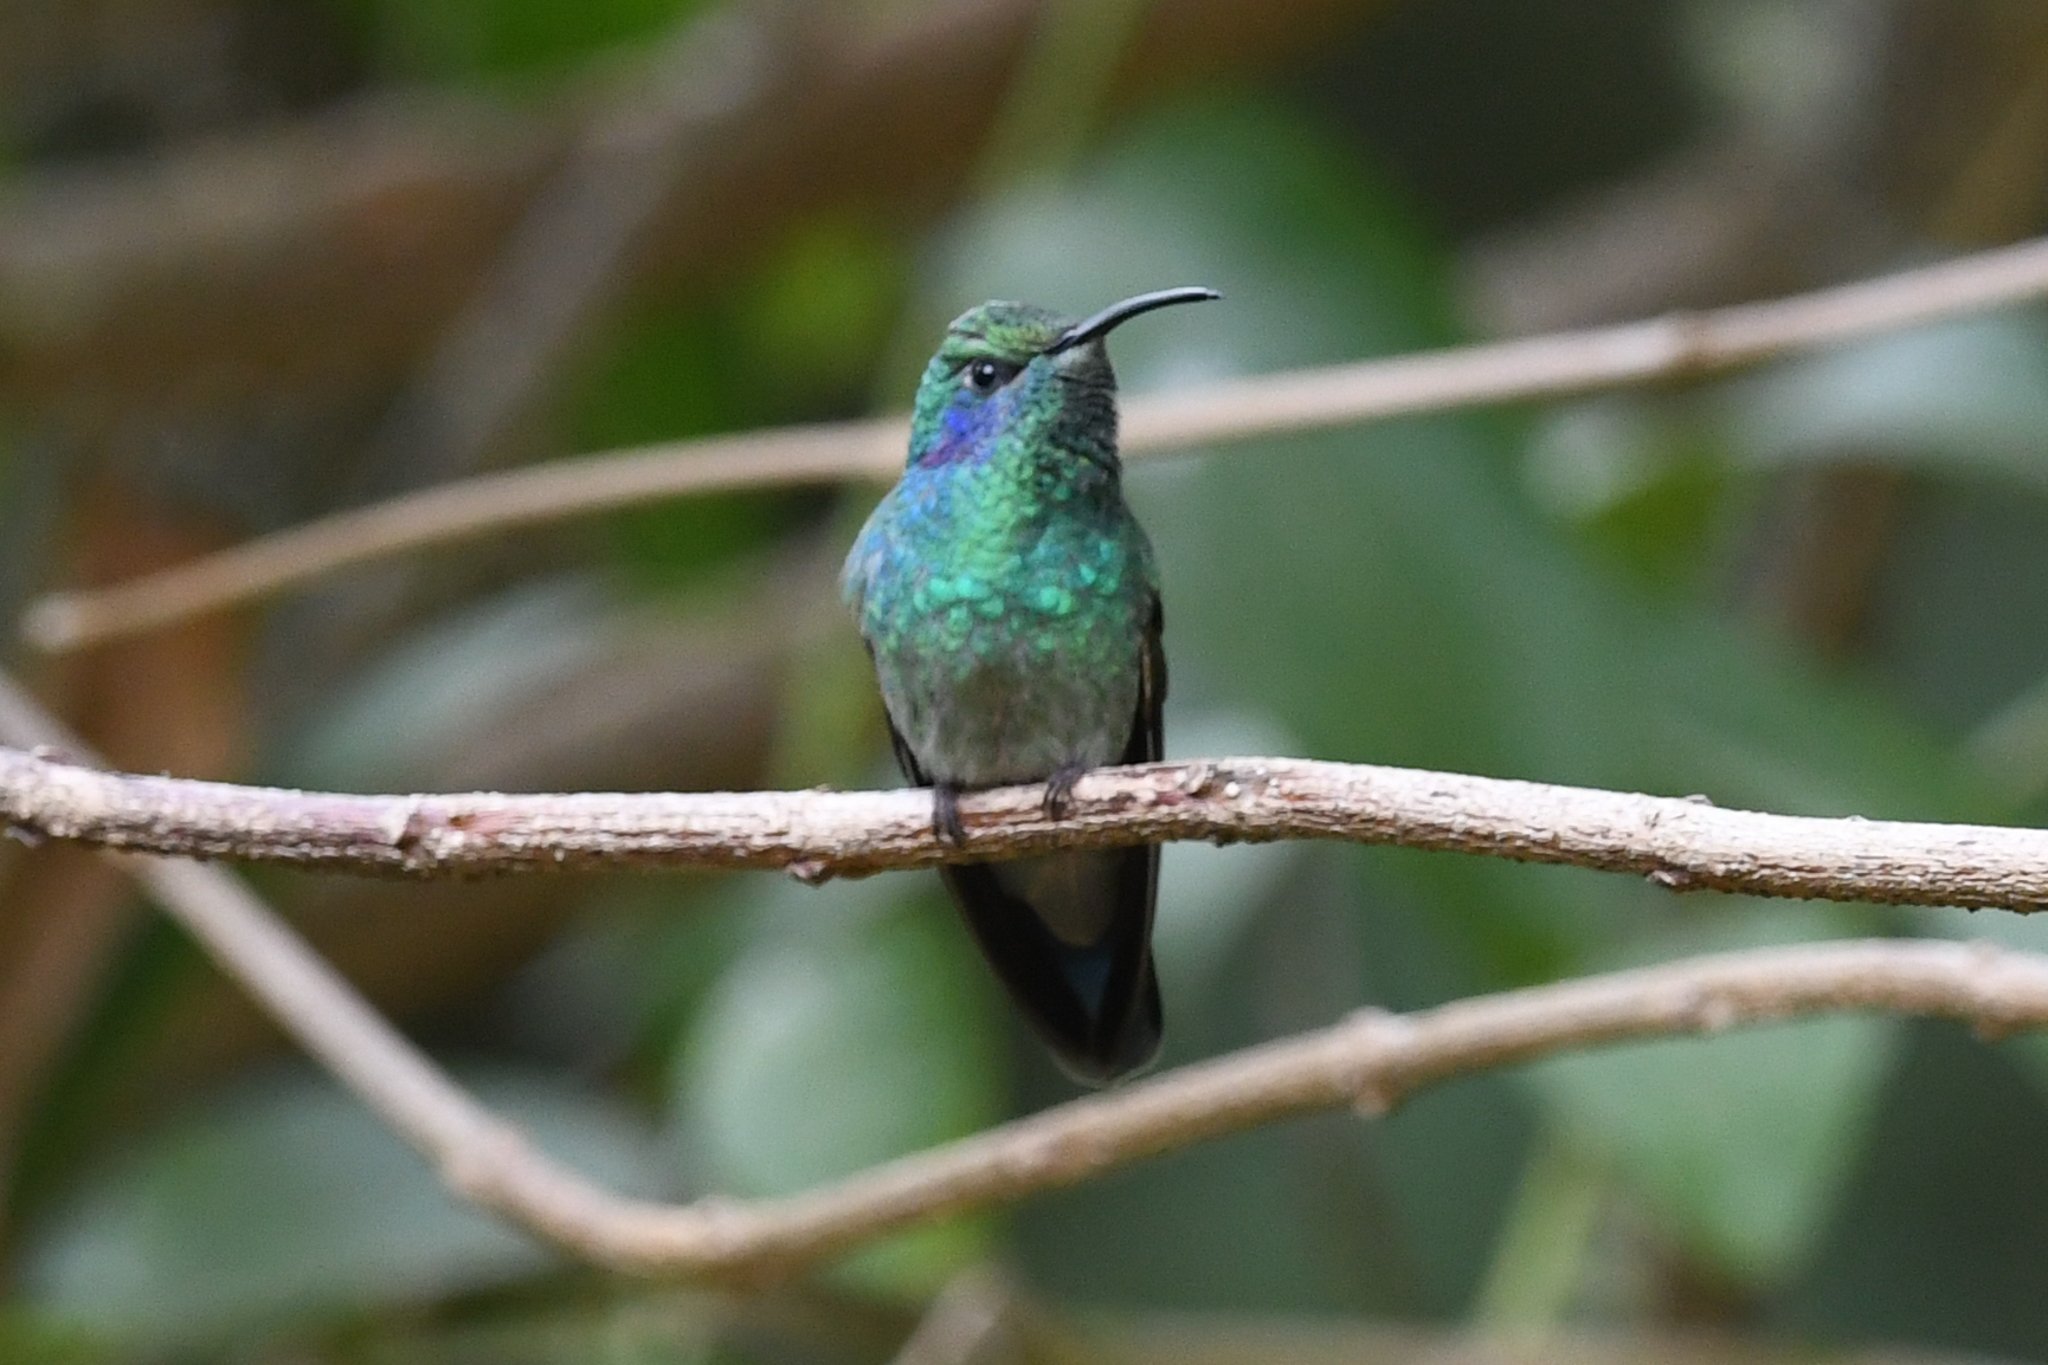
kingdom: Animalia
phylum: Chordata
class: Aves
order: Apodiformes
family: Trochilidae
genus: Colibri
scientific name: Colibri cyanotus
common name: Lesser violetear
